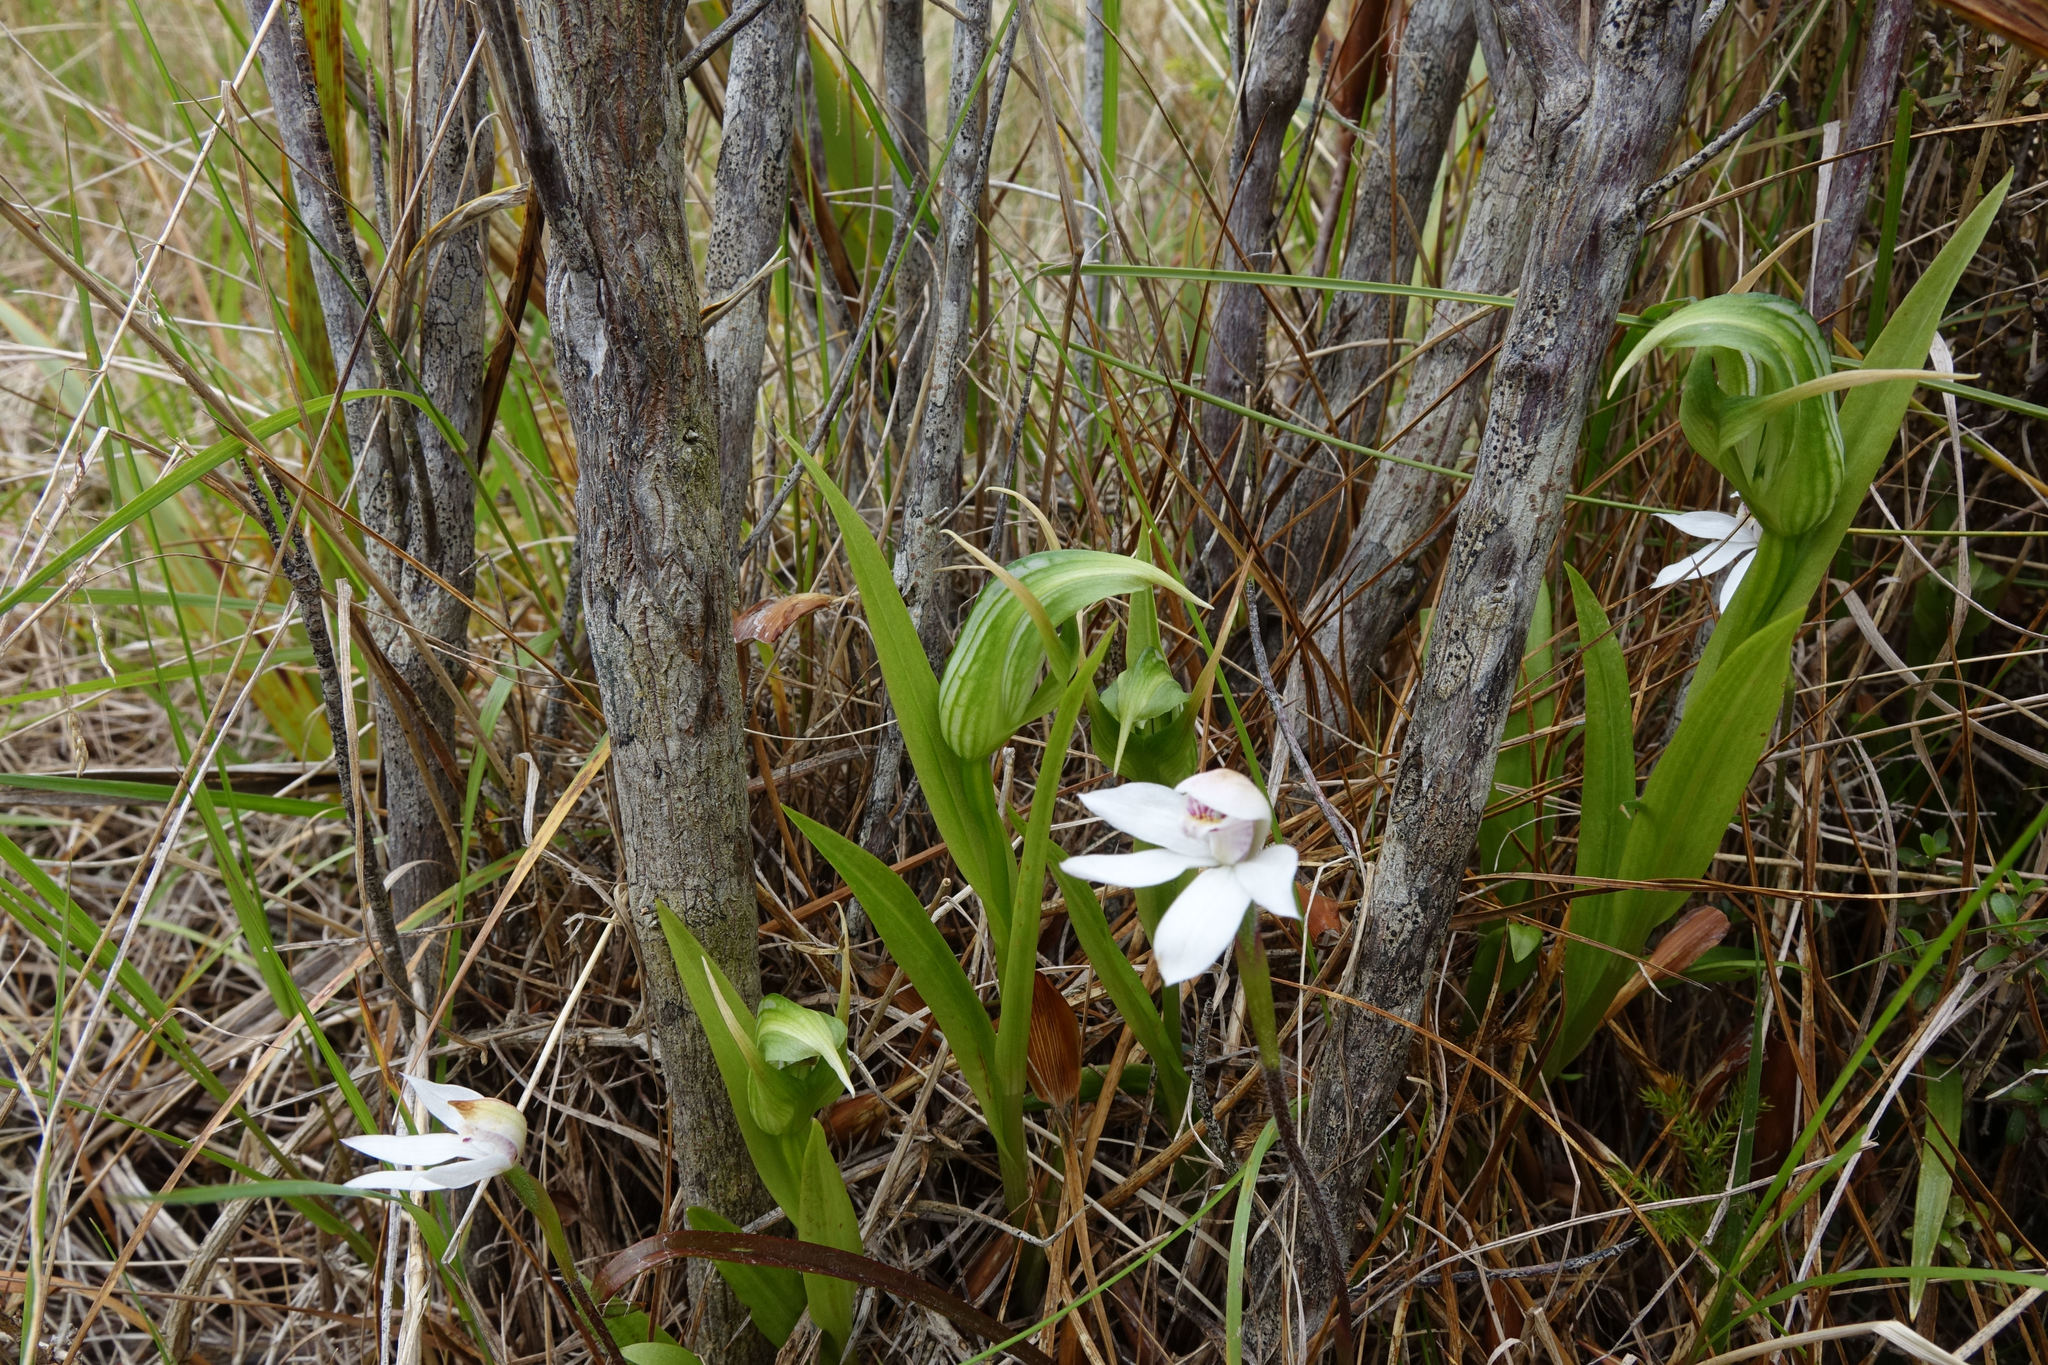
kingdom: Plantae
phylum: Tracheophyta
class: Liliopsida
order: Asparagales
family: Orchidaceae
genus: Pterostylis
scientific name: Pterostylis montana
